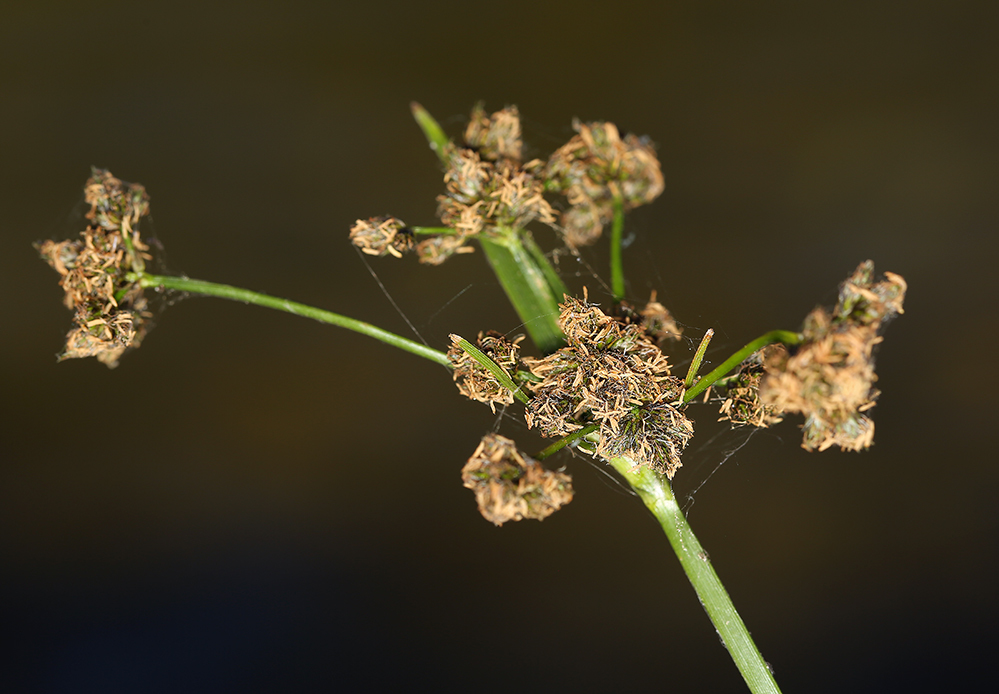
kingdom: Plantae
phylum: Tracheophyta
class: Liliopsida
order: Poales
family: Cyperaceae
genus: Scirpus
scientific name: Scirpus congdonii
